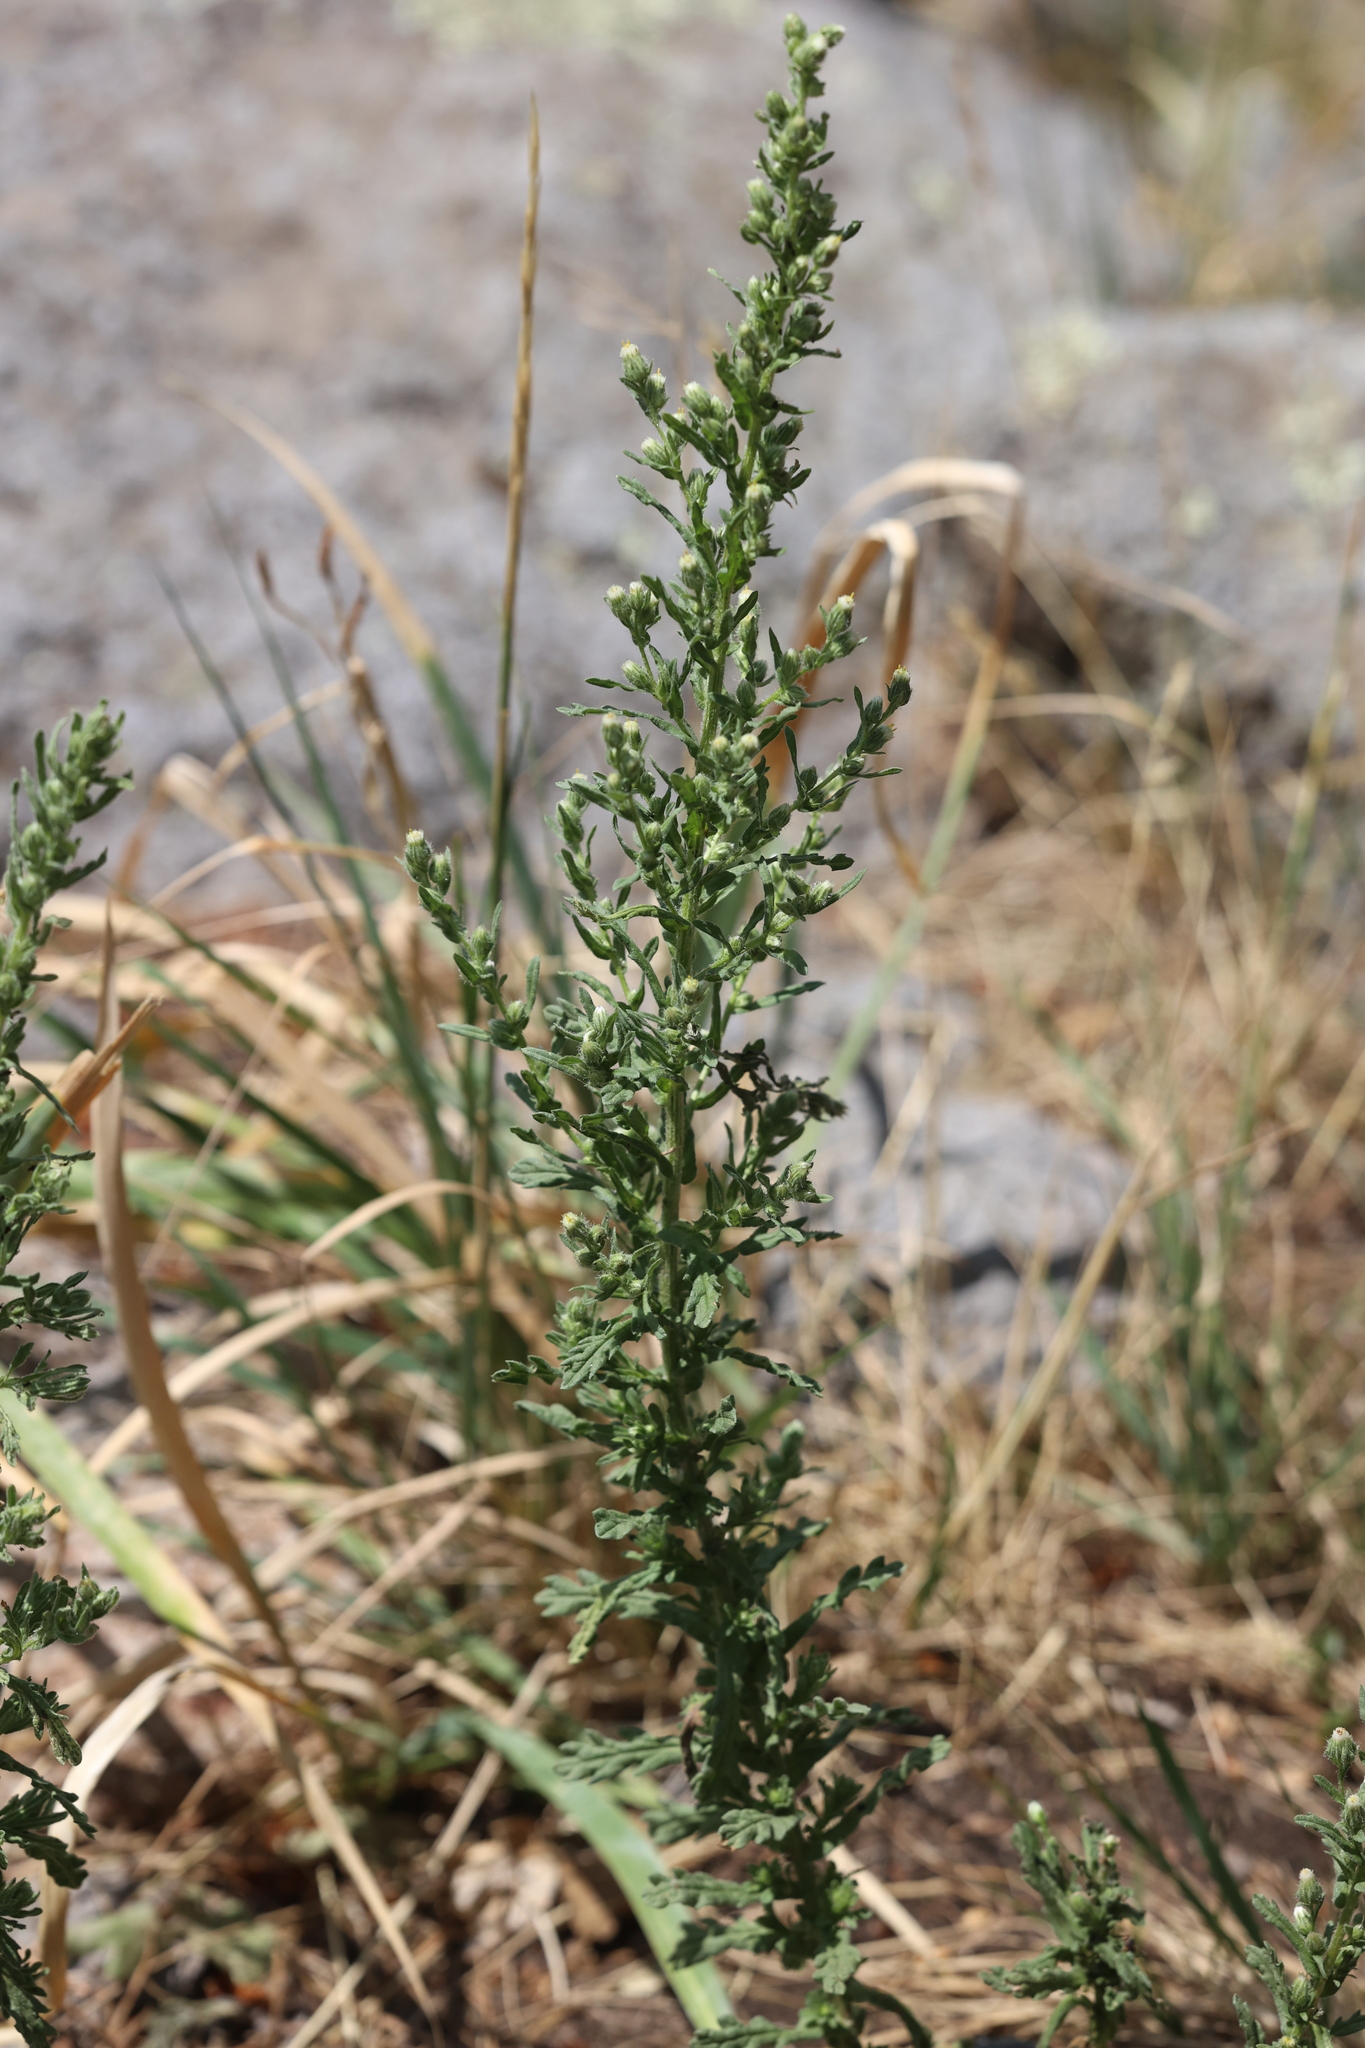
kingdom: Plantae
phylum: Tracheophyta
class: Magnoliopsida
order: Asterales
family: Asteraceae
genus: Laennecia
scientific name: Laennecia schiedeana
